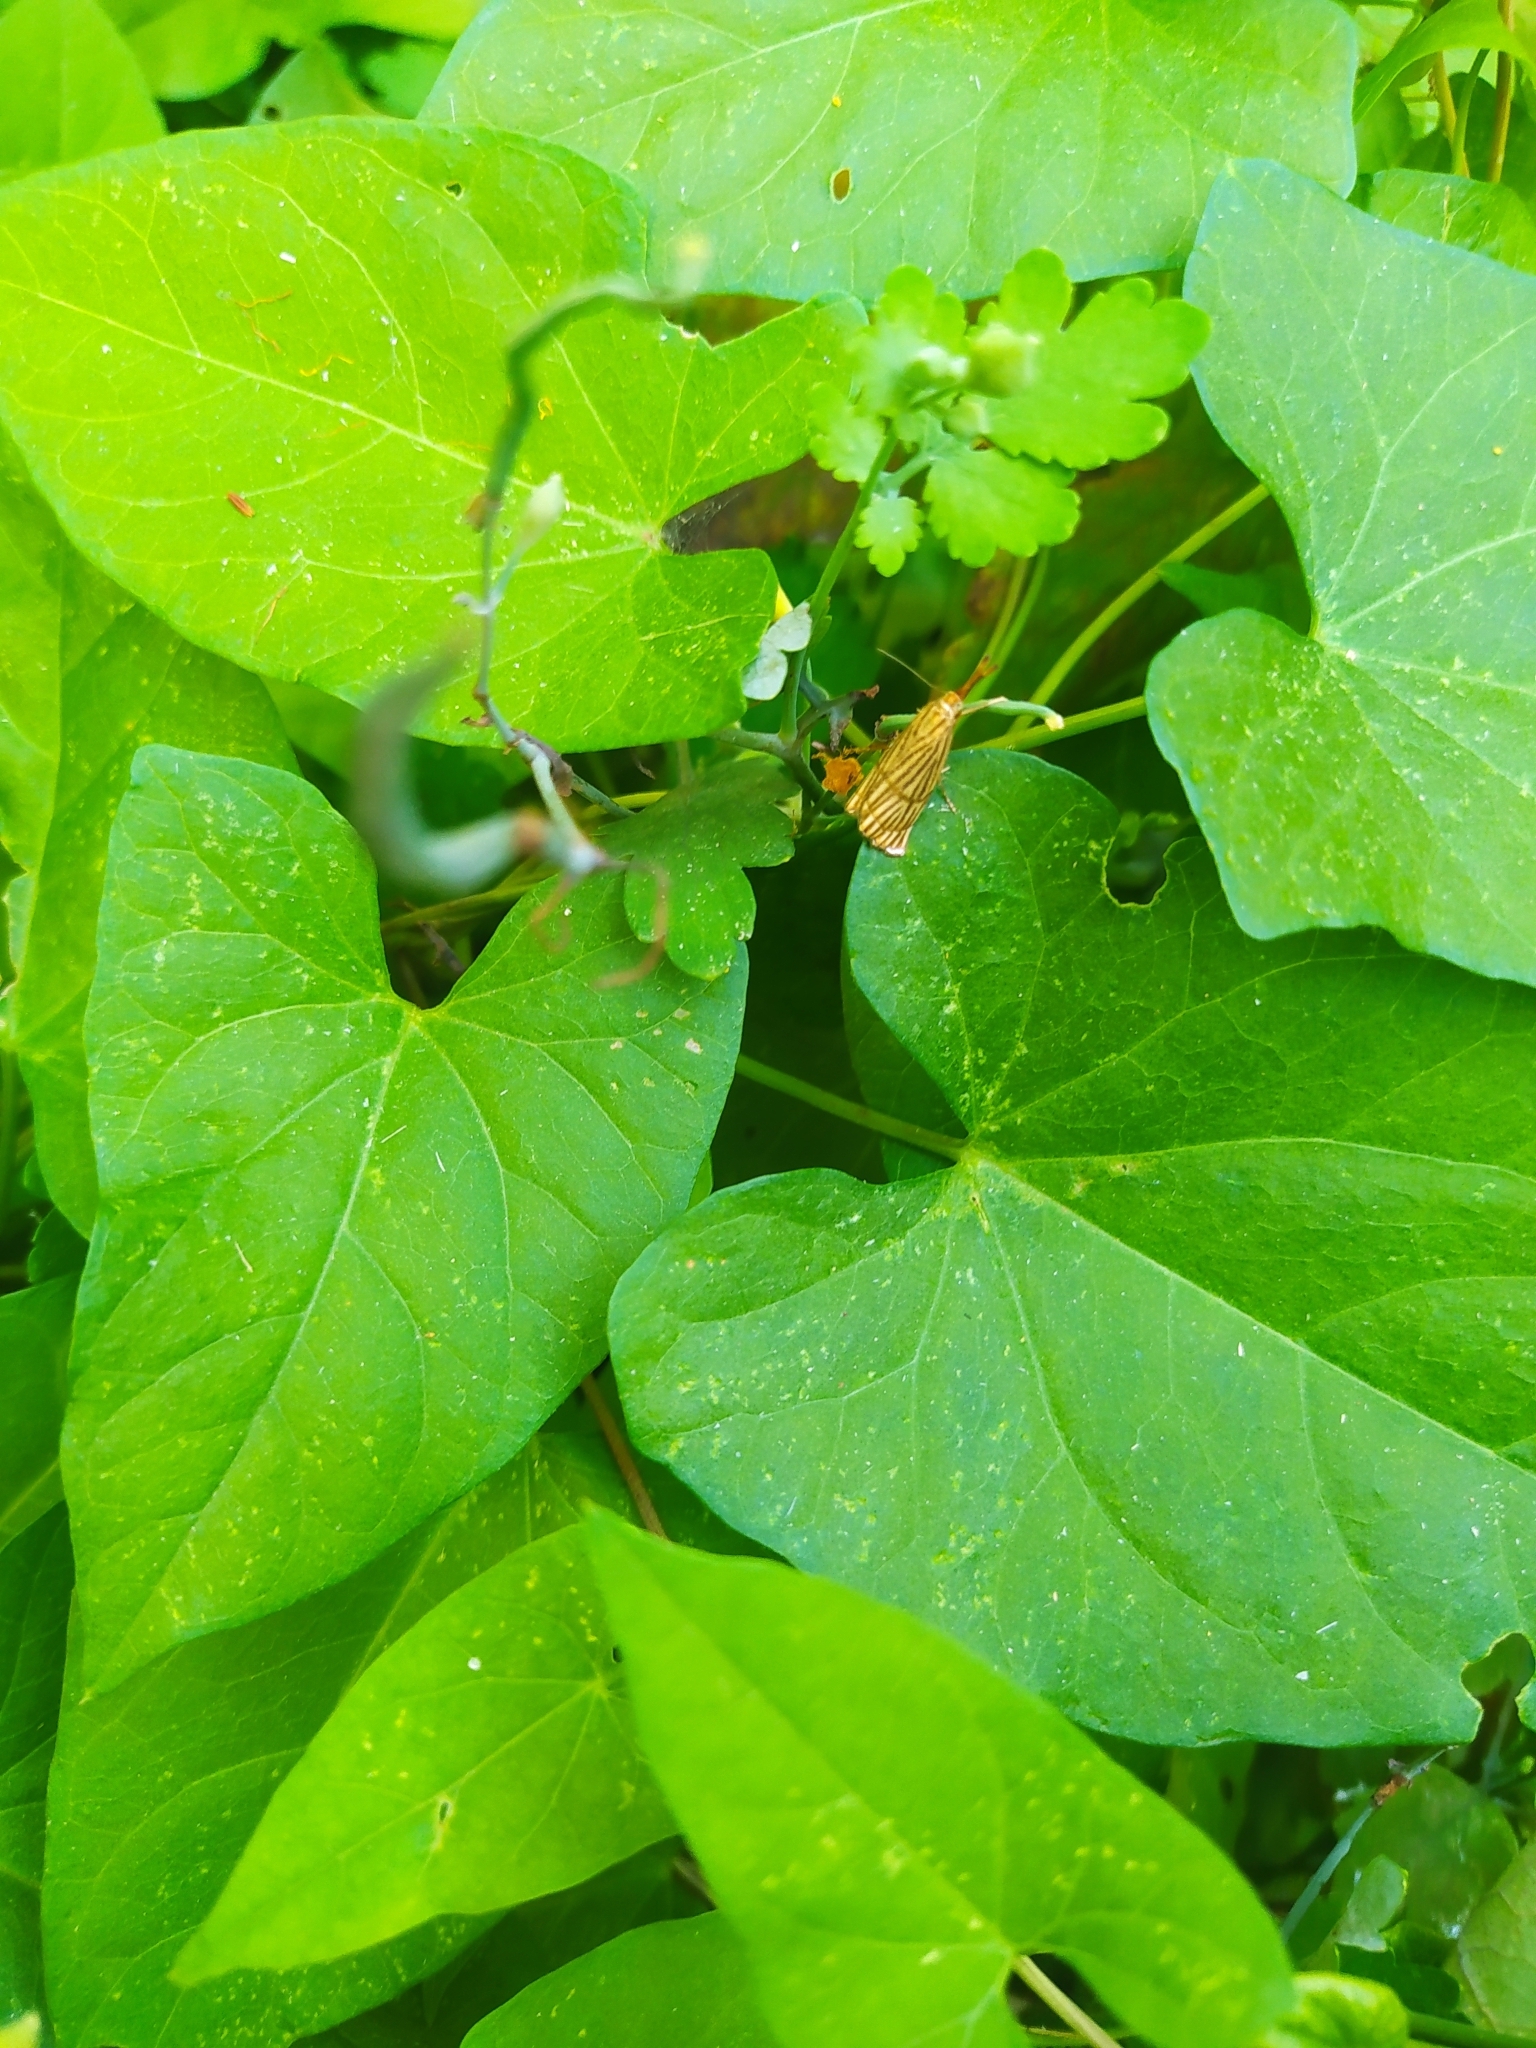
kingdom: Animalia
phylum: Arthropoda
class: Insecta
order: Lepidoptera
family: Crambidae
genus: Chrysocrambus
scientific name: Chrysocrambus linetella
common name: Orange-bar grass-veneer
